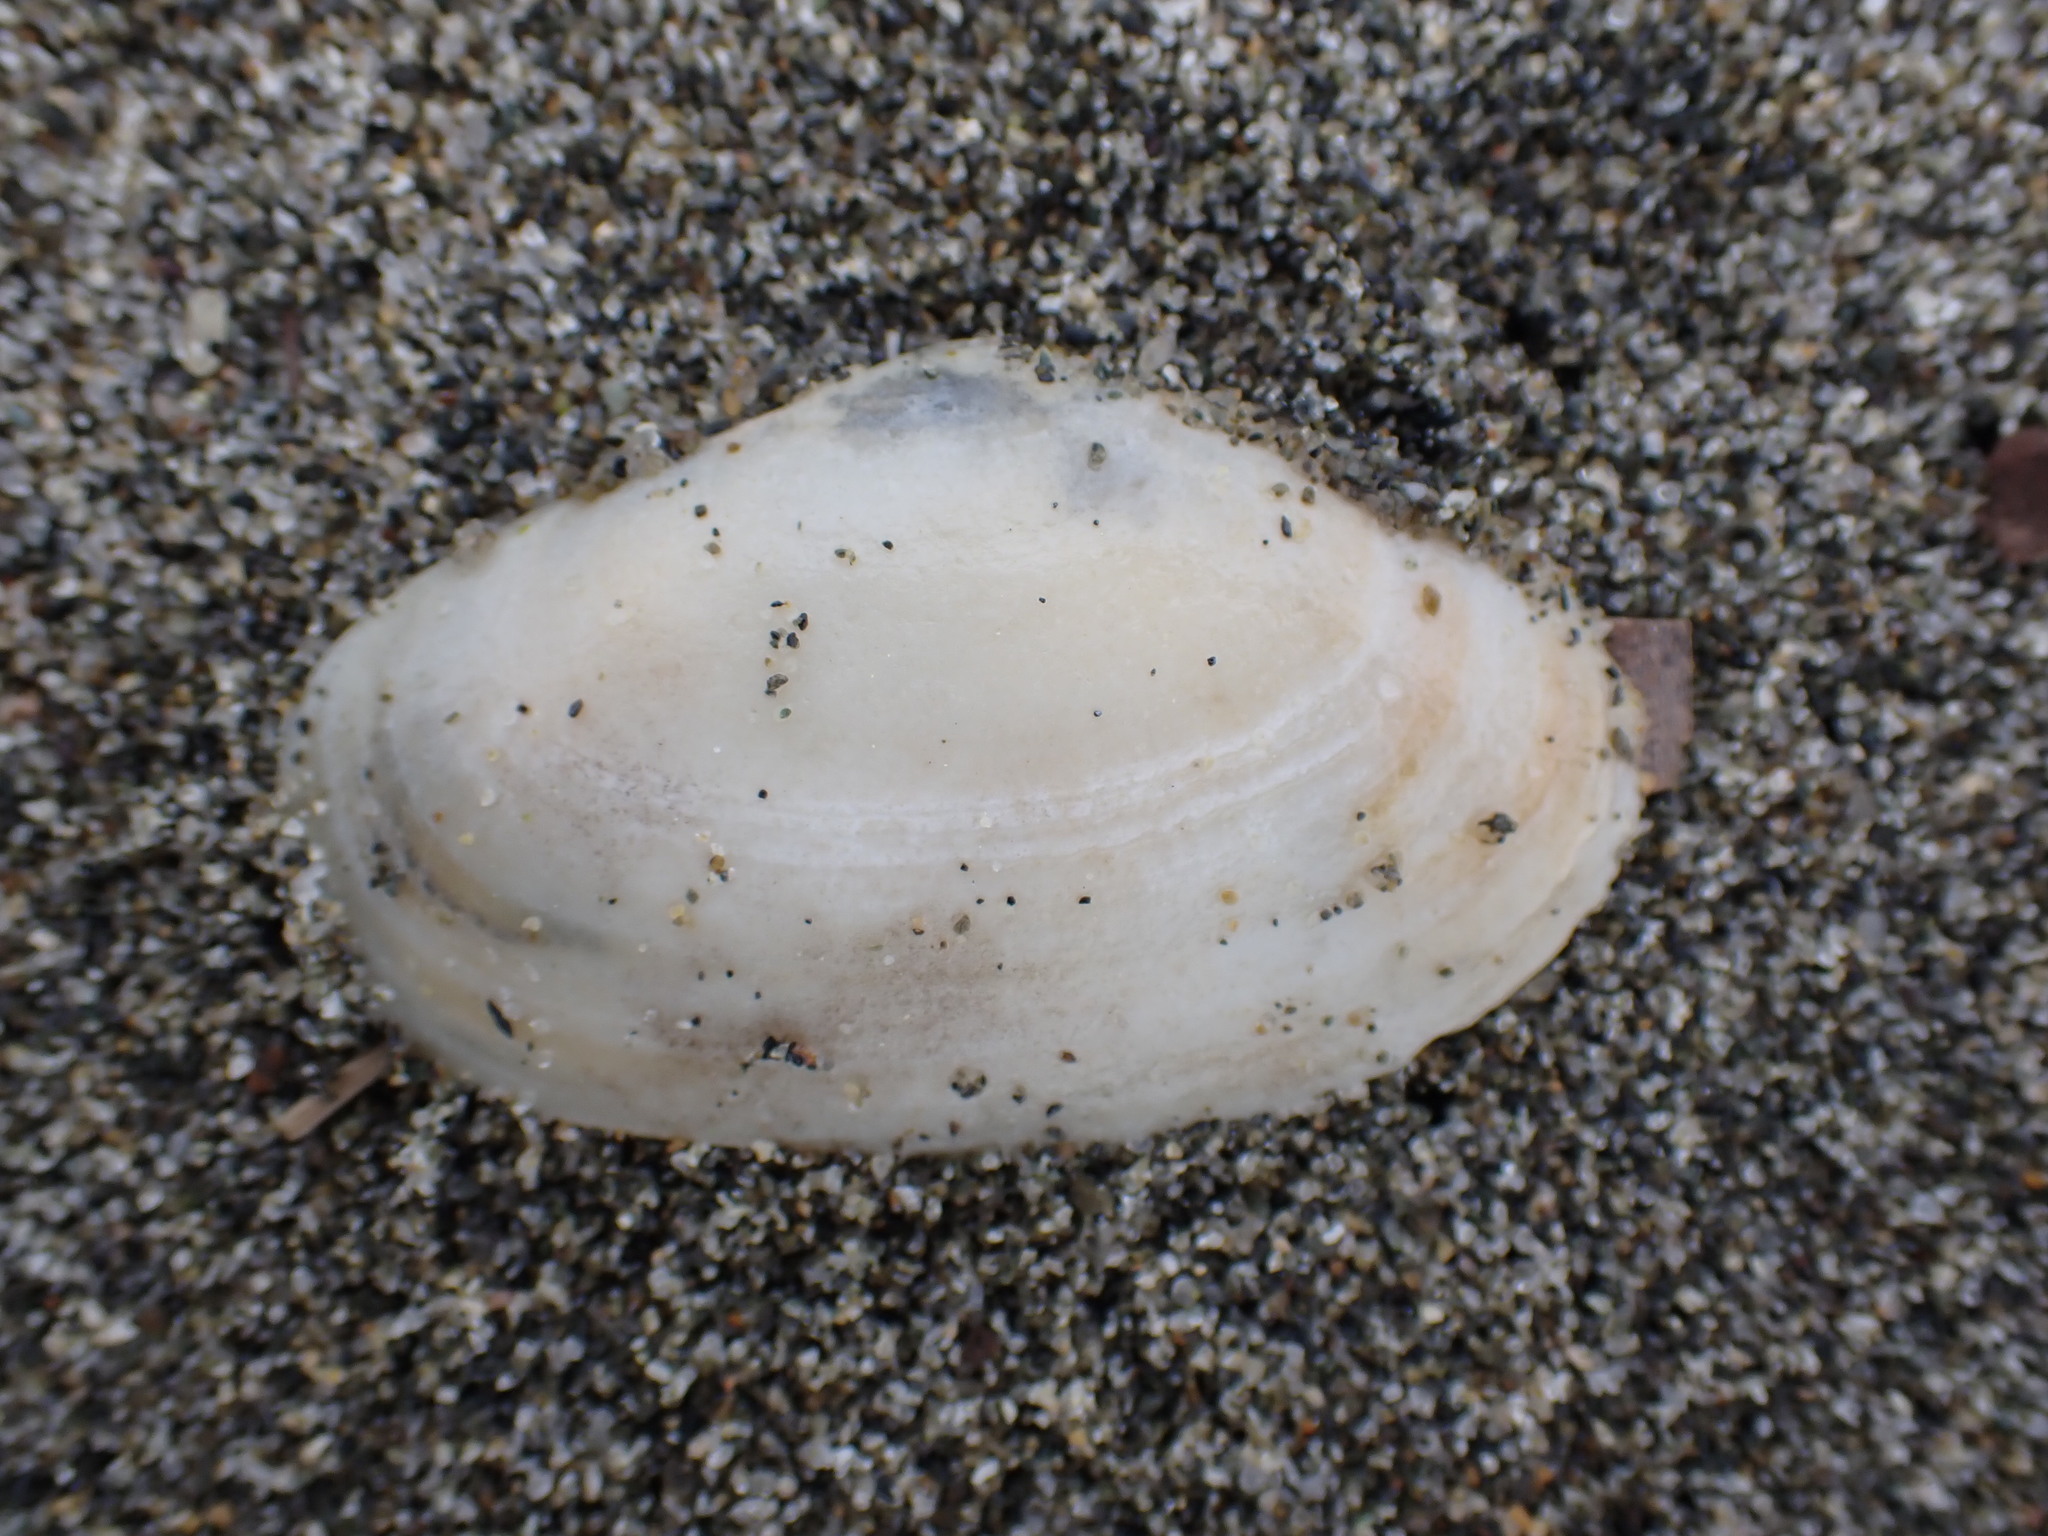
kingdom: Animalia
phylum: Mollusca
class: Bivalvia
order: Venerida
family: Mesodesmatidae
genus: Paphies
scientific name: Paphies australis
